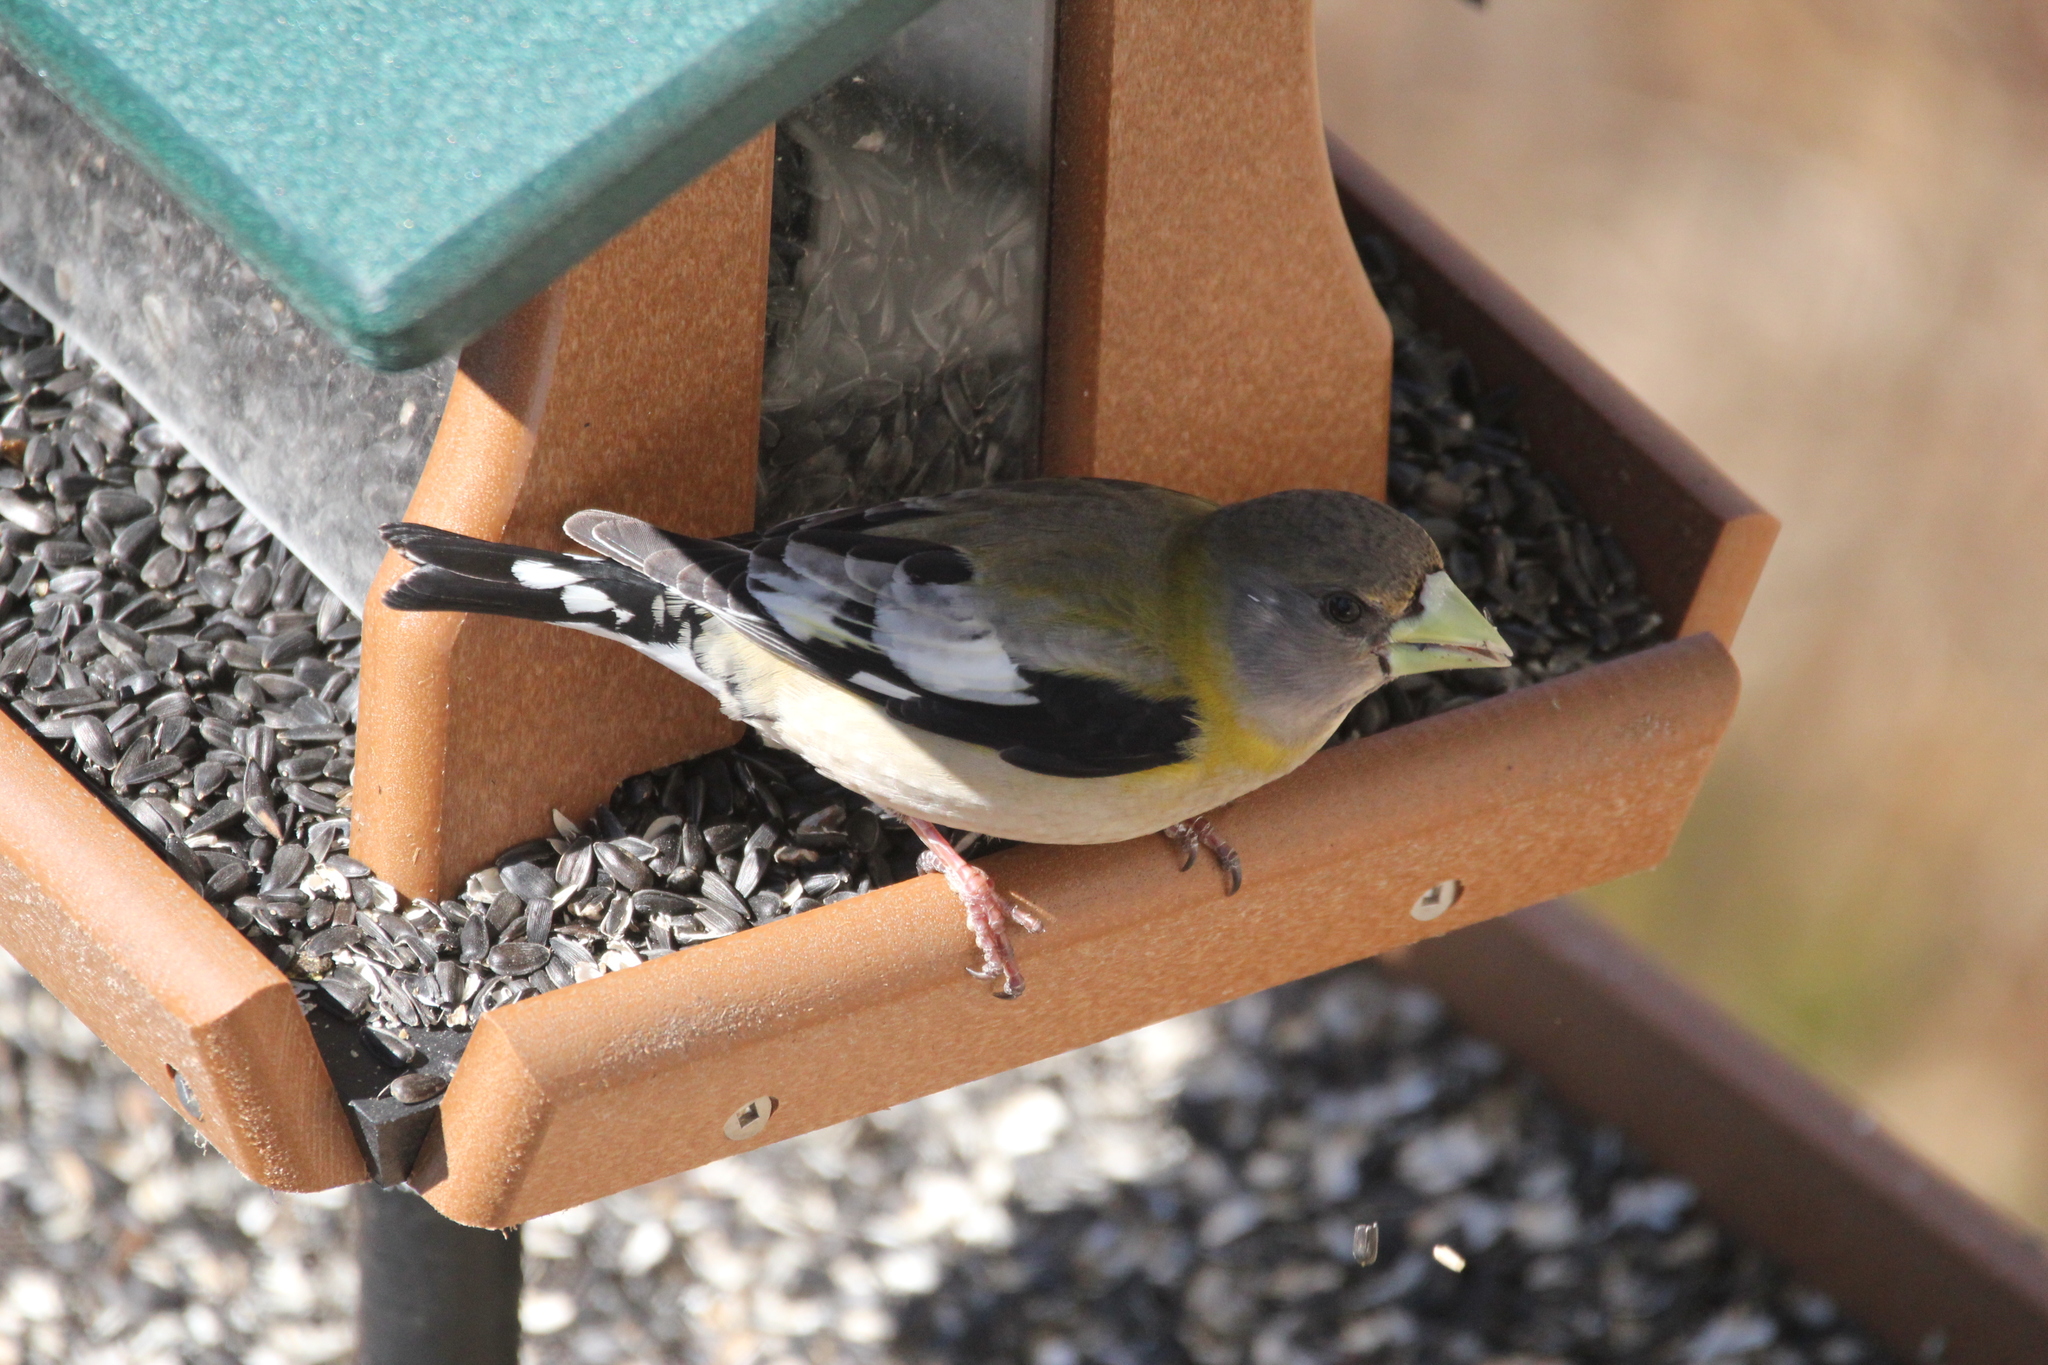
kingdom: Animalia
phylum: Chordata
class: Aves
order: Passeriformes
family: Fringillidae
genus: Hesperiphona
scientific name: Hesperiphona vespertina
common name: Evening grosbeak
